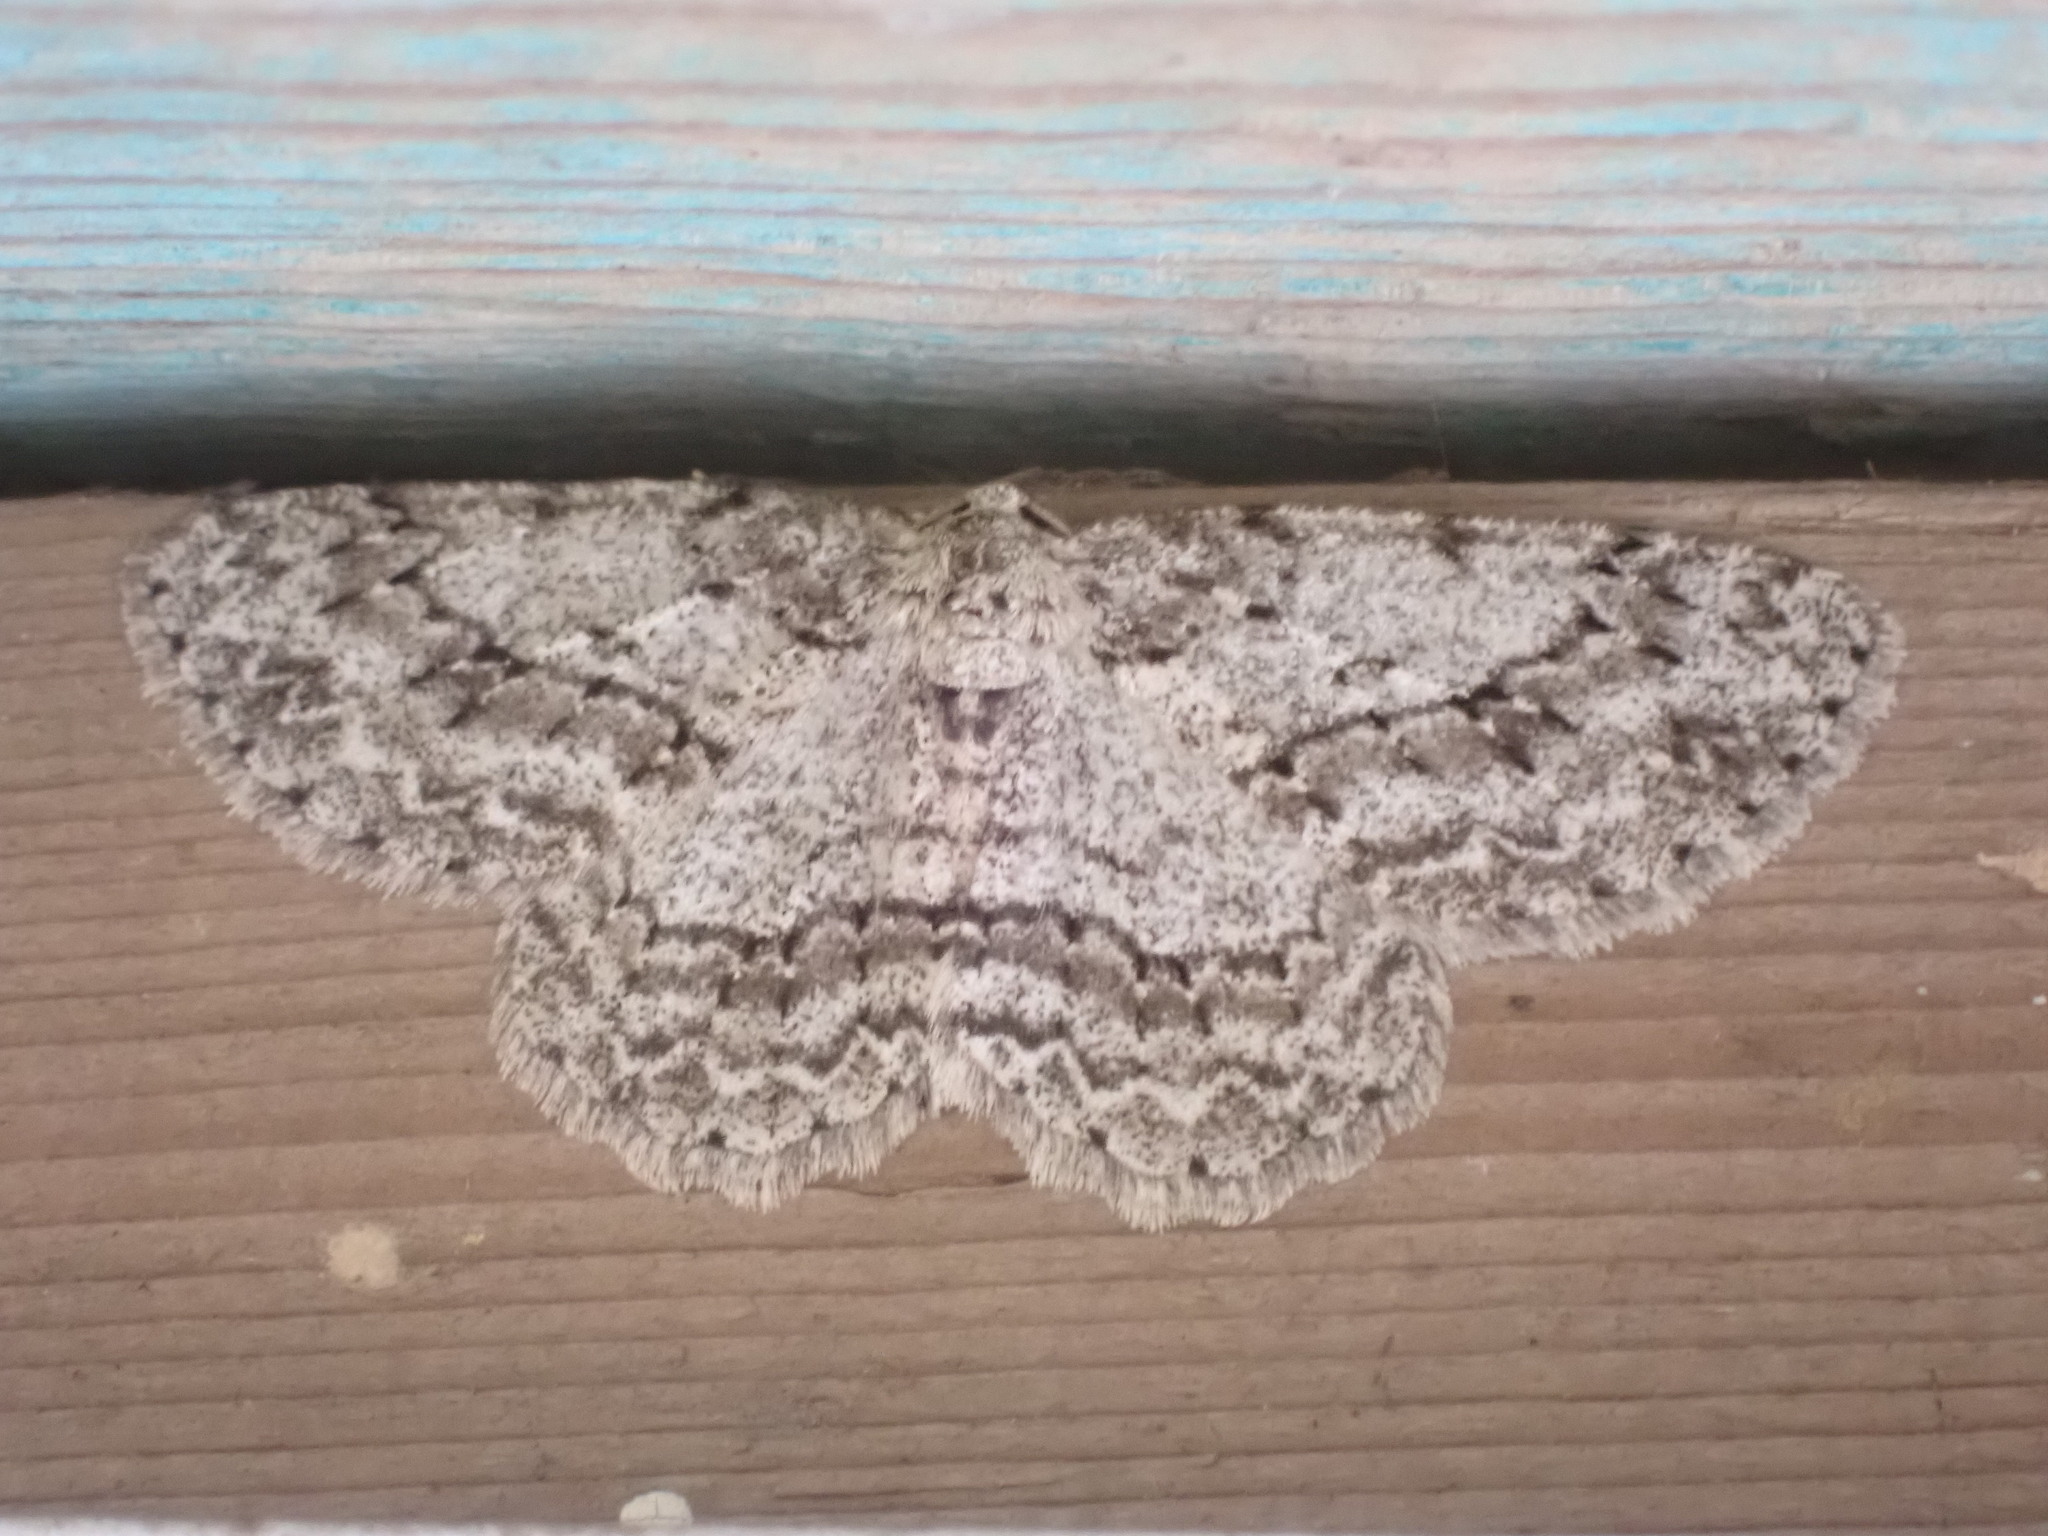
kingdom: Animalia
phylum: Arthropoda
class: Insecta
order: Lepidoptera
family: Geometridae
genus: Ectropis
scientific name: Ectropis crepuscularia
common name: Engrailed
